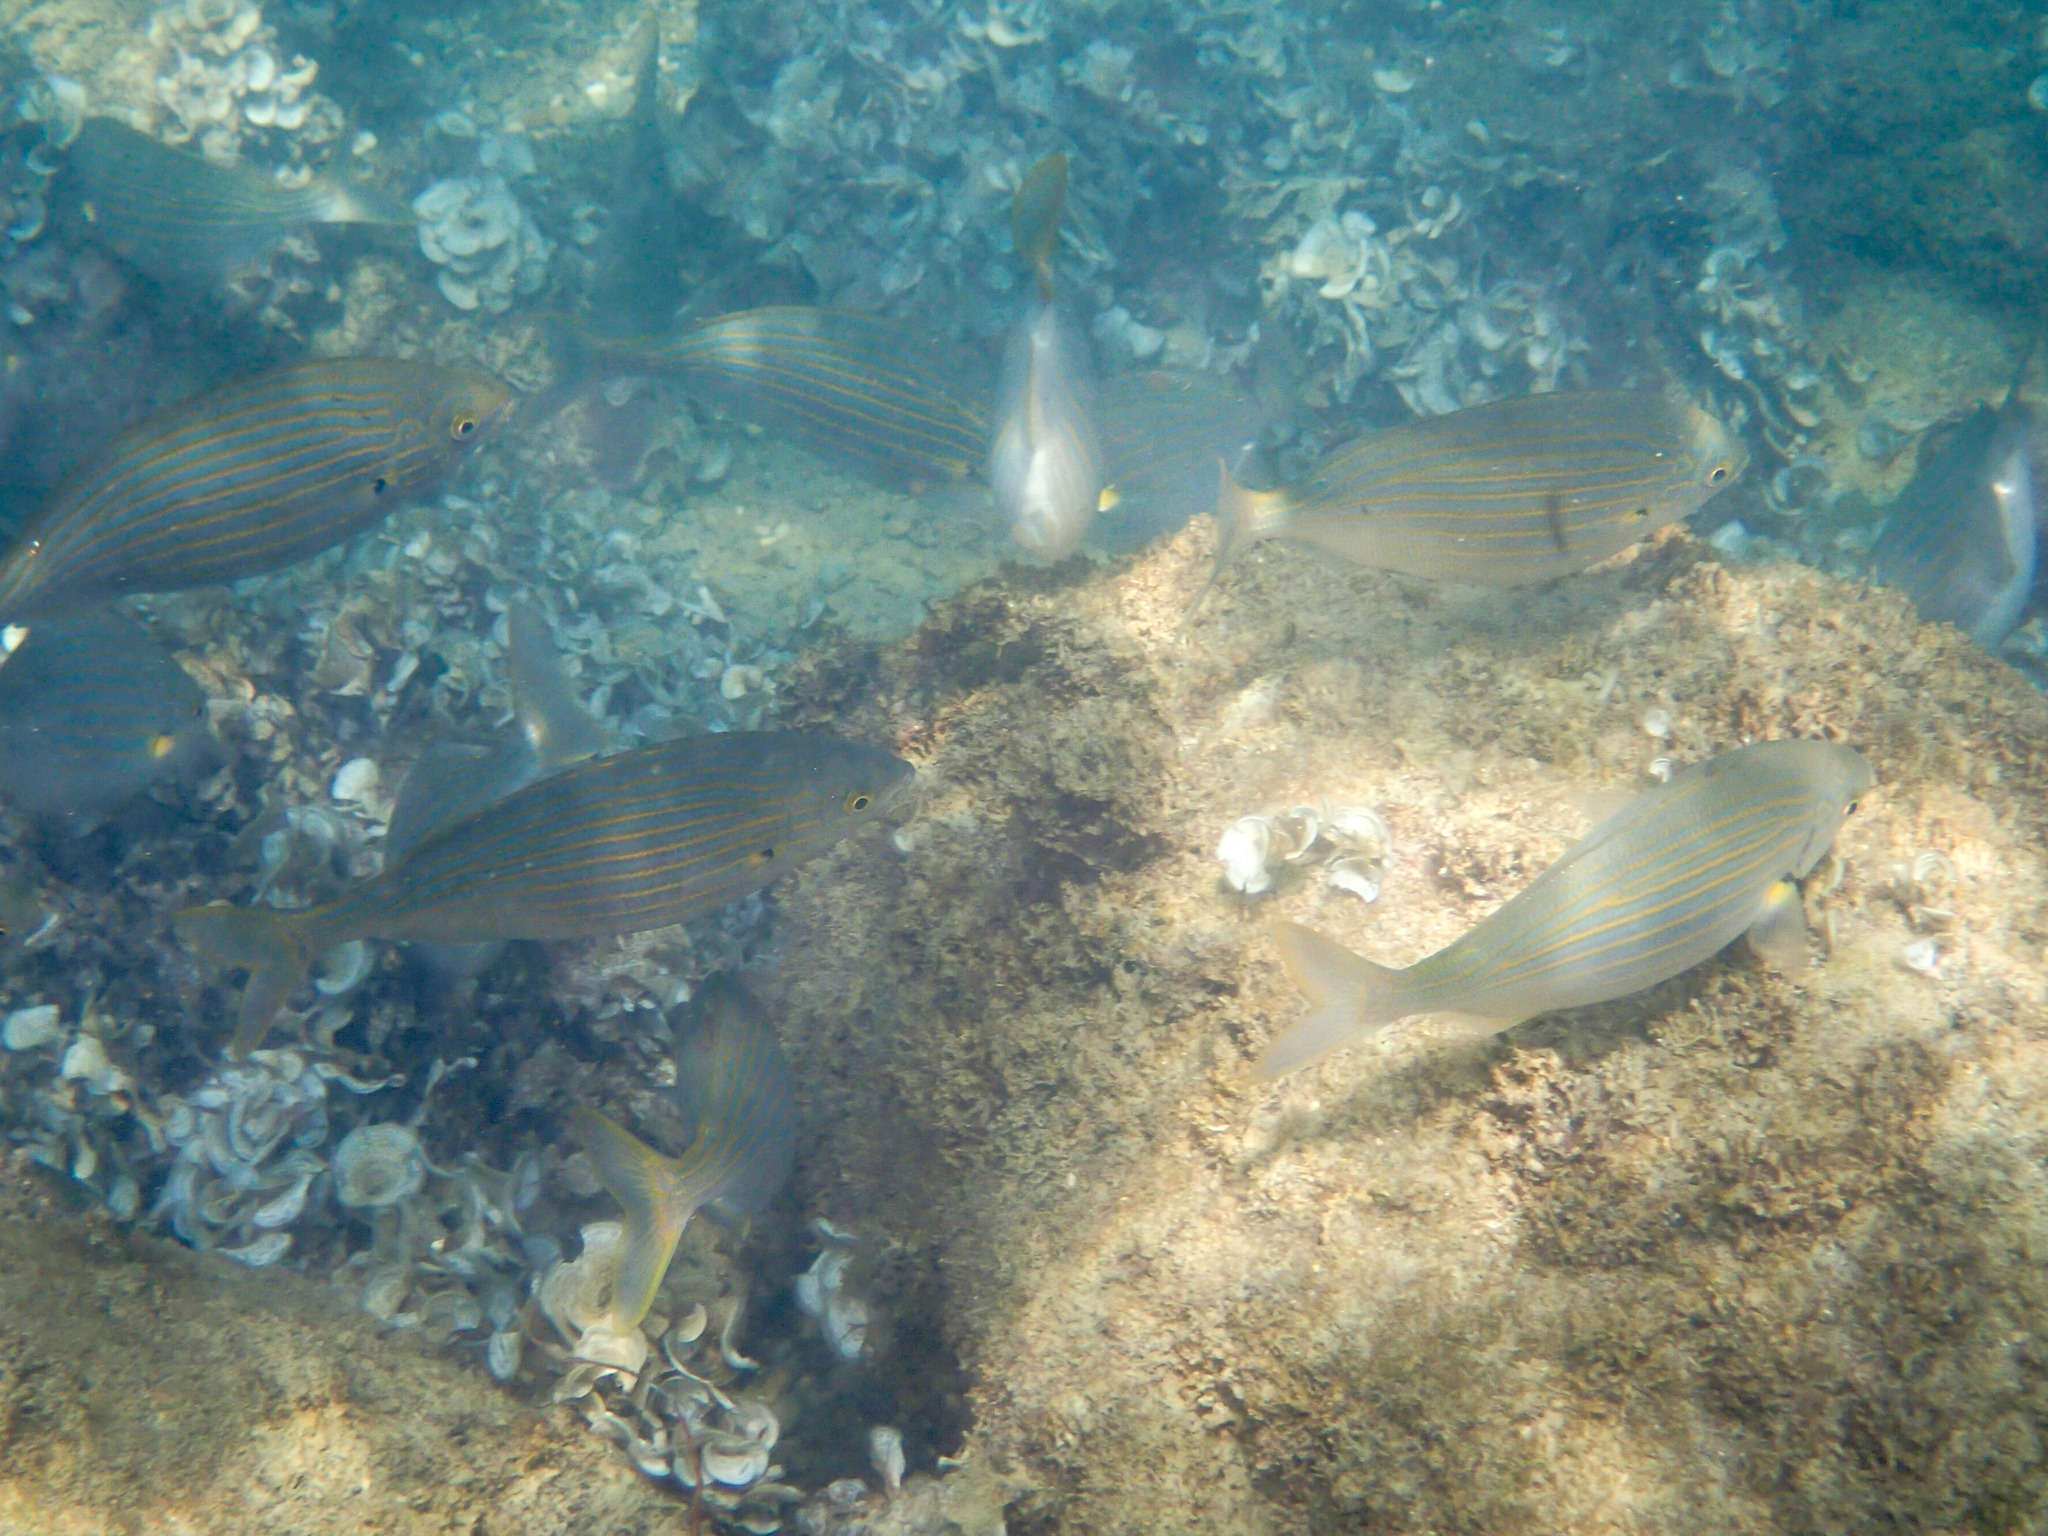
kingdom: Animalia
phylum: Chordata
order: Perciformes
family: Sparidae
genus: Sarpa
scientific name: Sarpa salpa
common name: Salema
